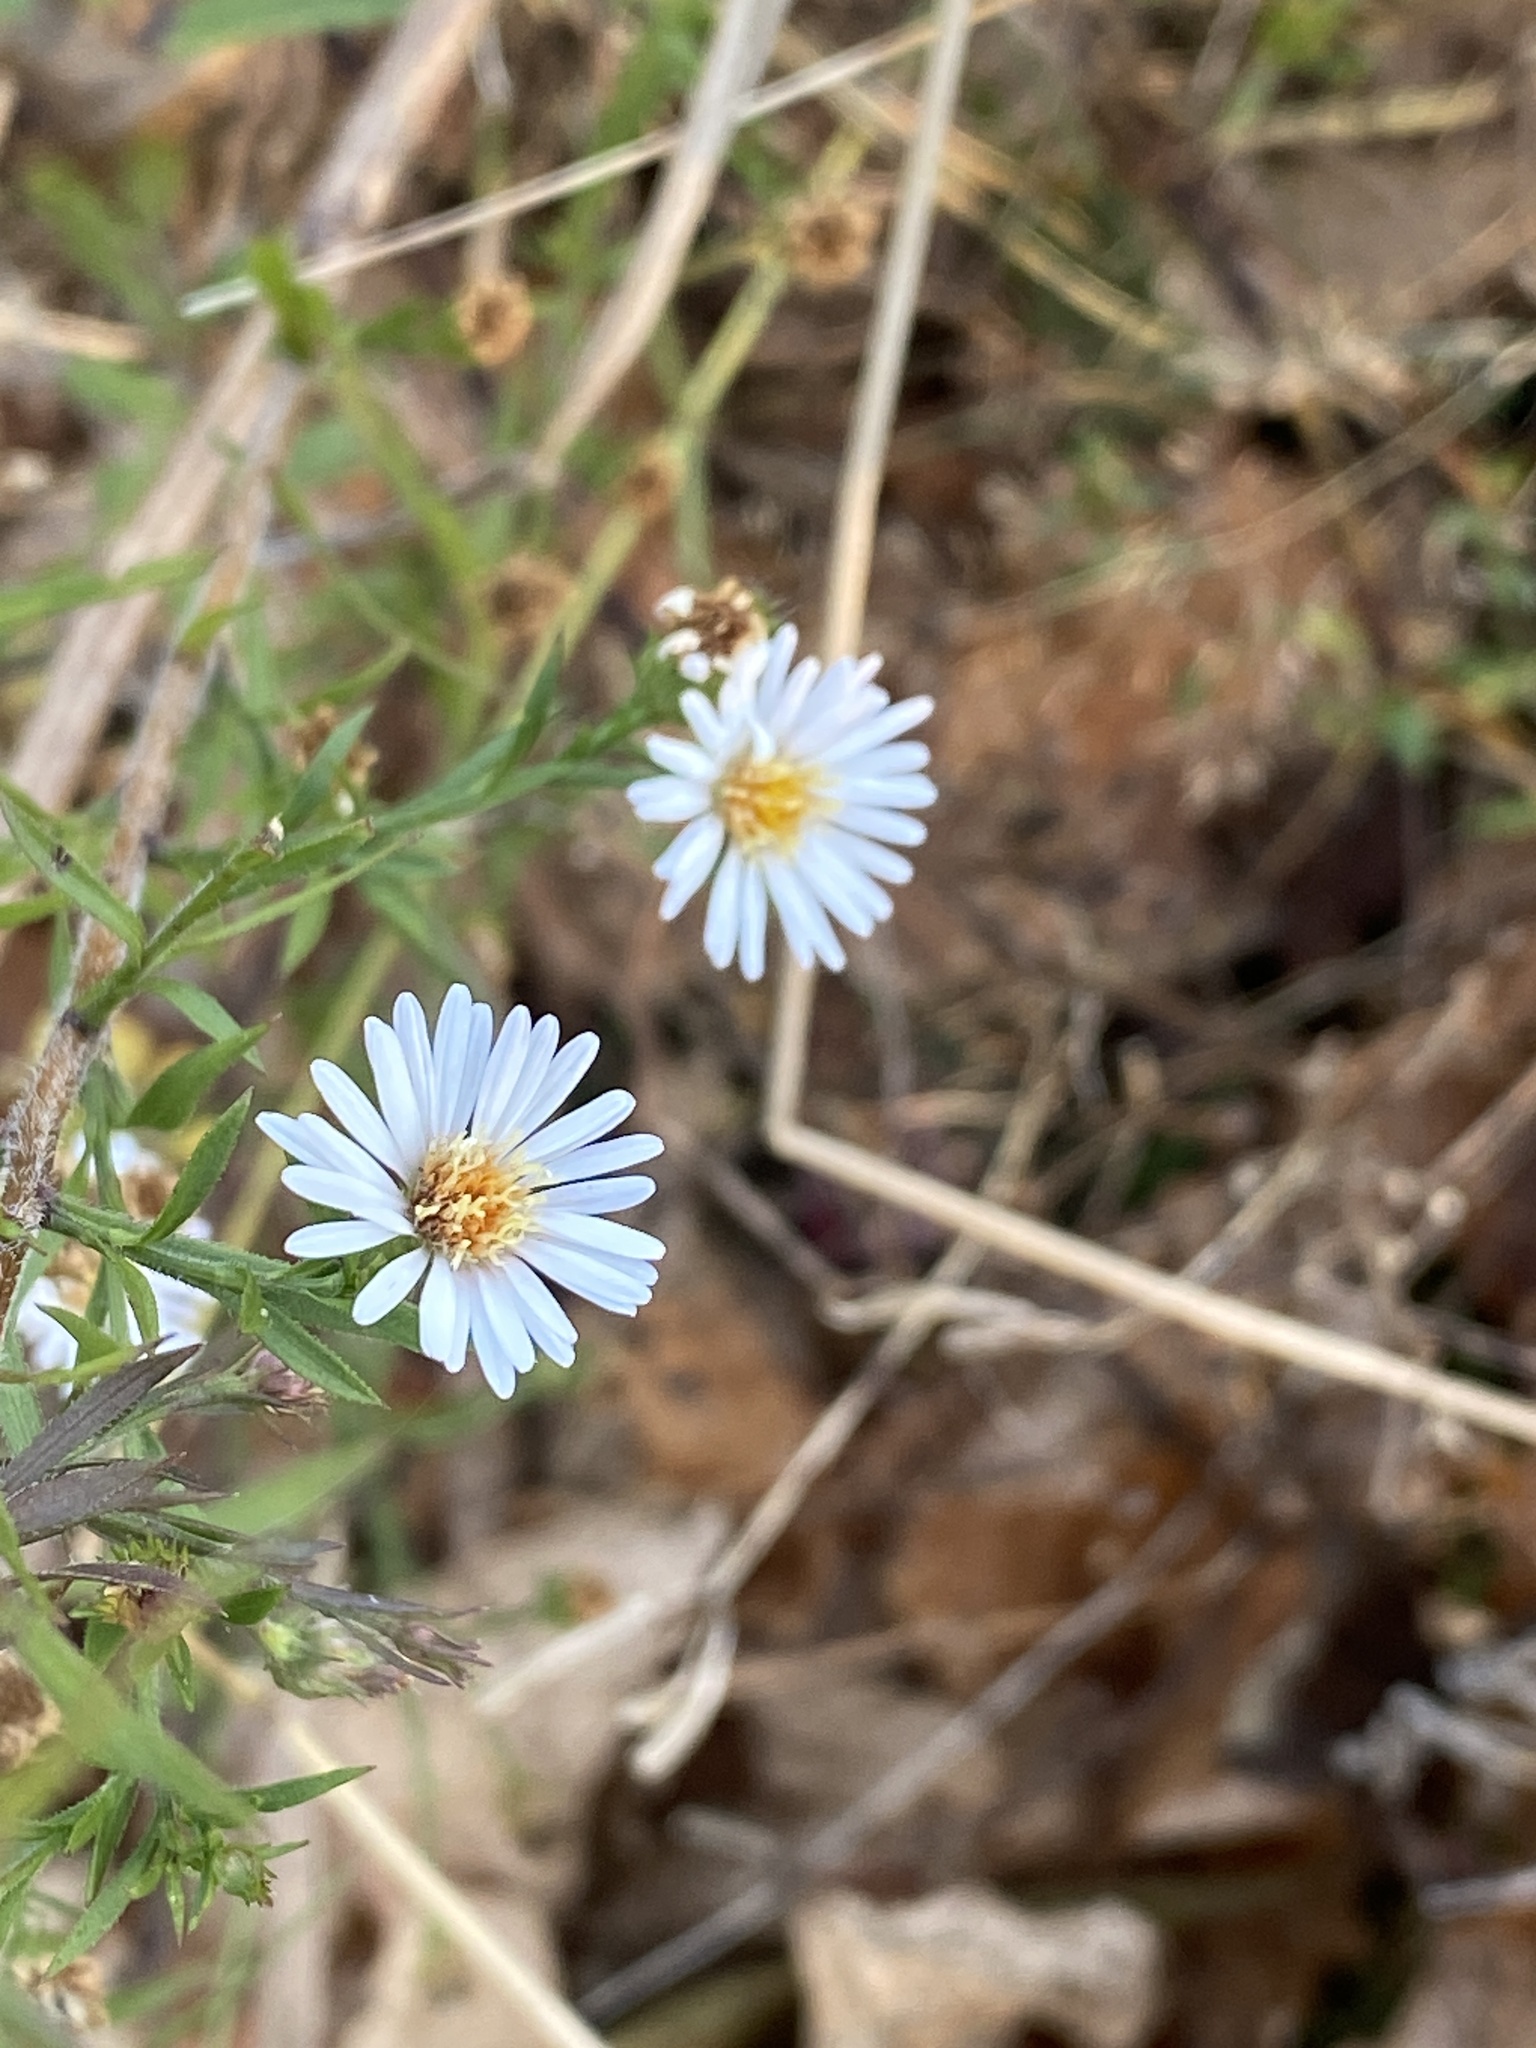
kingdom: Plantae
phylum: Tracheophyta
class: Magnoliopsida
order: Asterales
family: Asteraceae
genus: Symphyotrichum
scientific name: Symphyotrichum pilosum
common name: Awl aster
